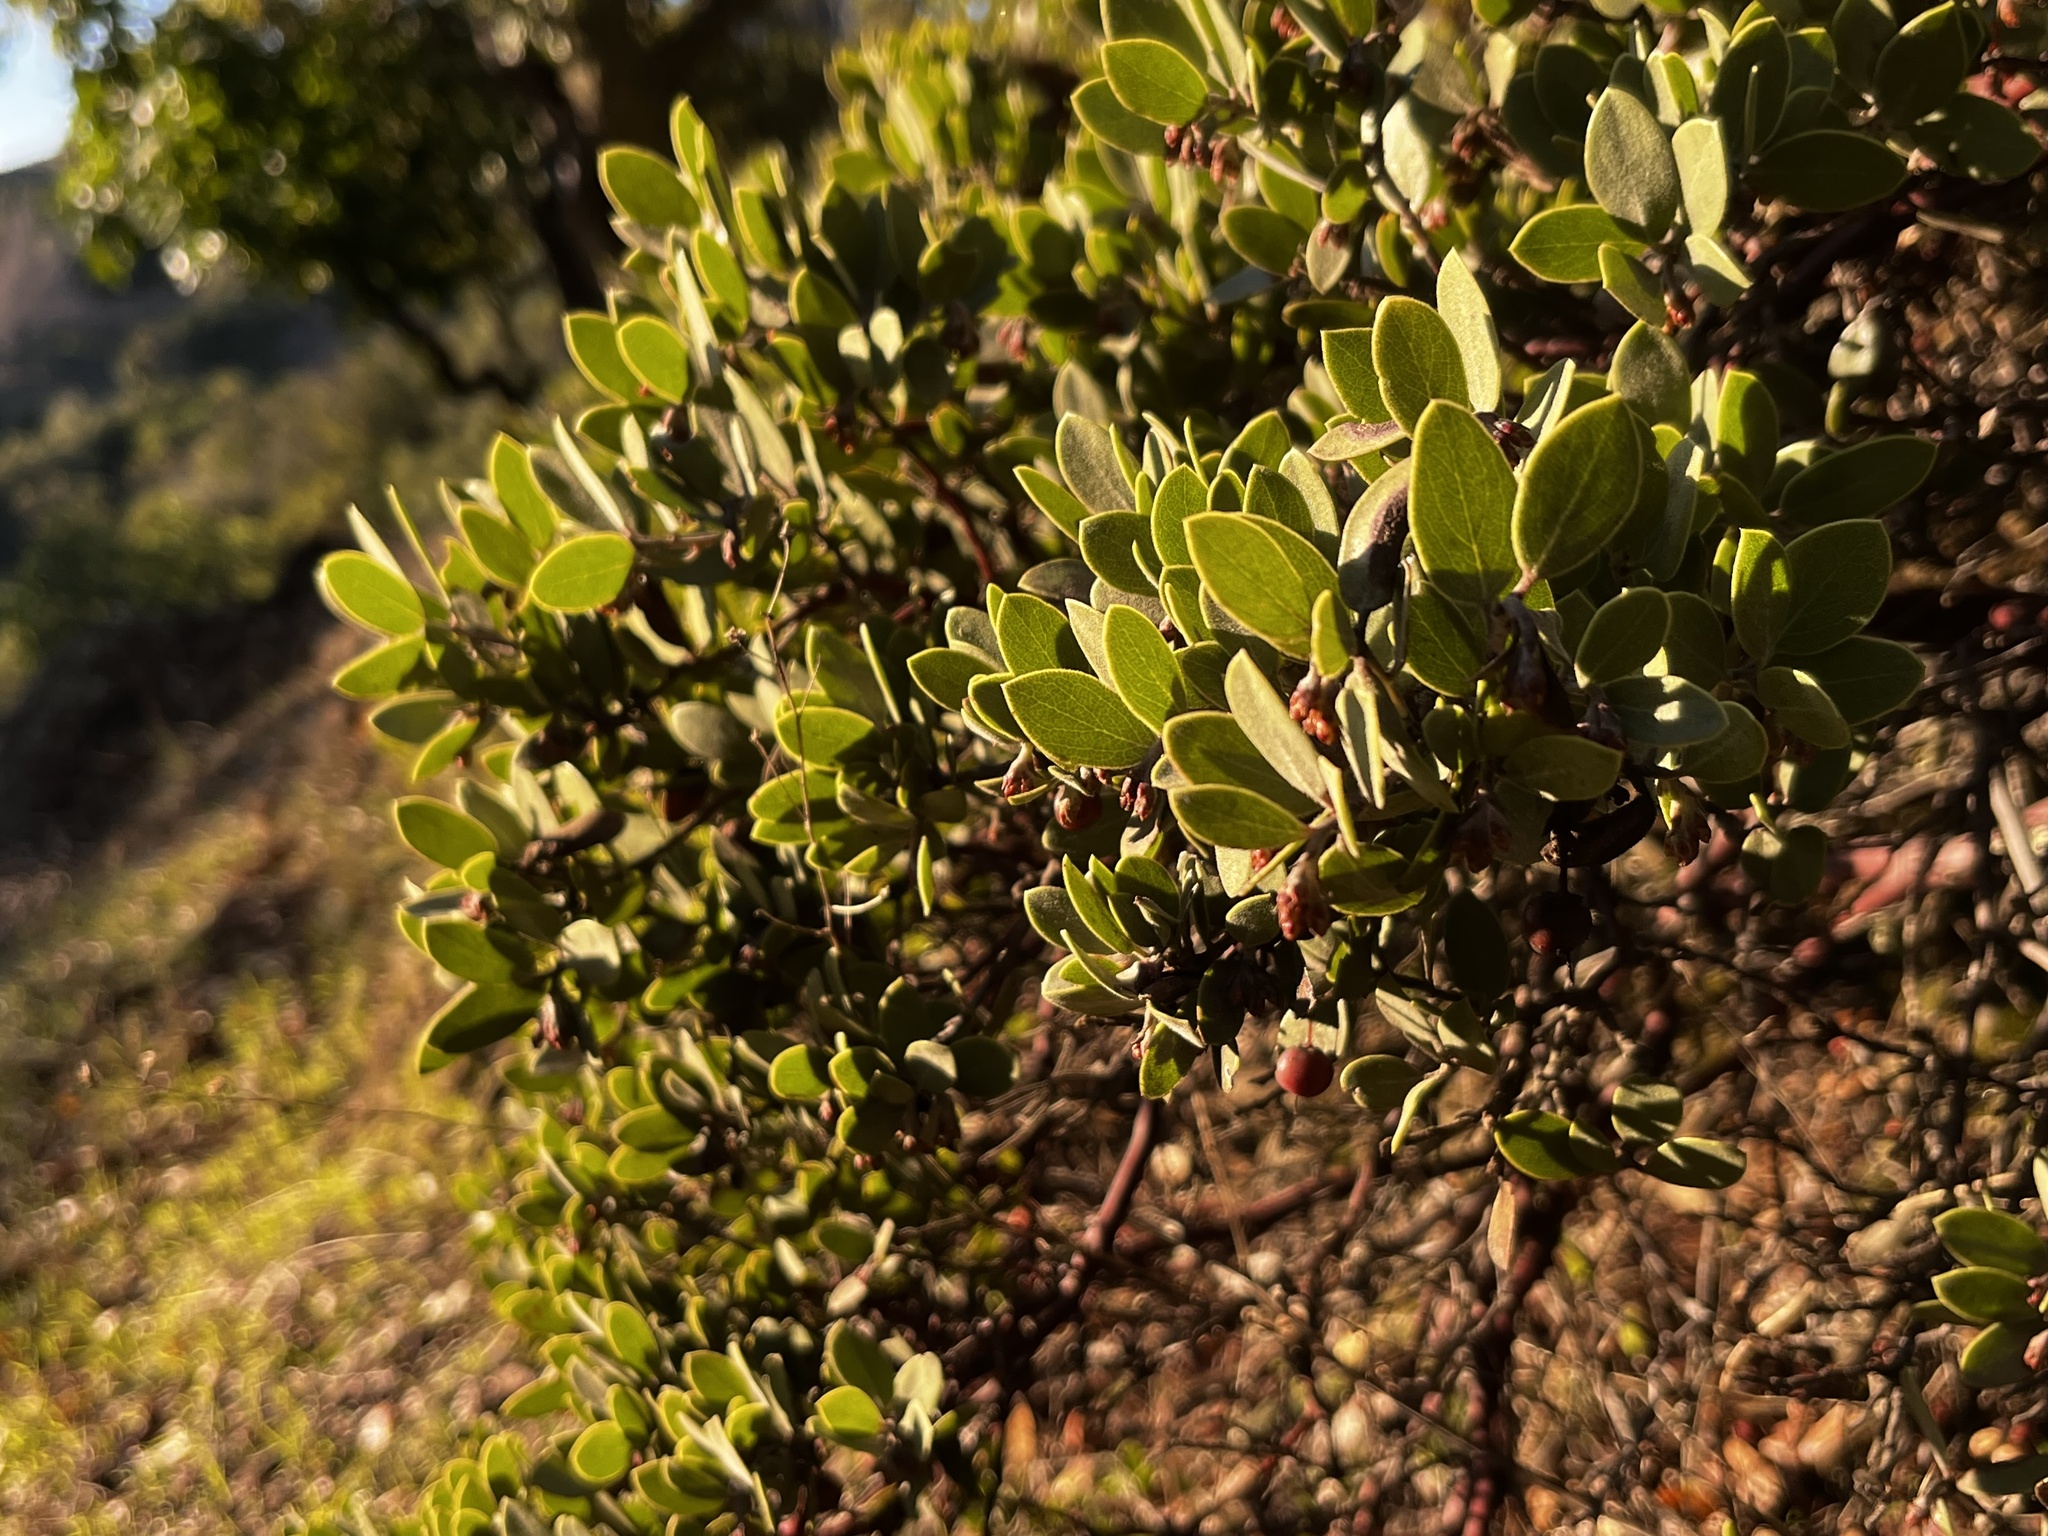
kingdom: Plantae
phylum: Tracheophyta
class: Magnoliopsida
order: Ericales
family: Ericaceae
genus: Arctostaphylos
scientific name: Arctostaphylos montana
